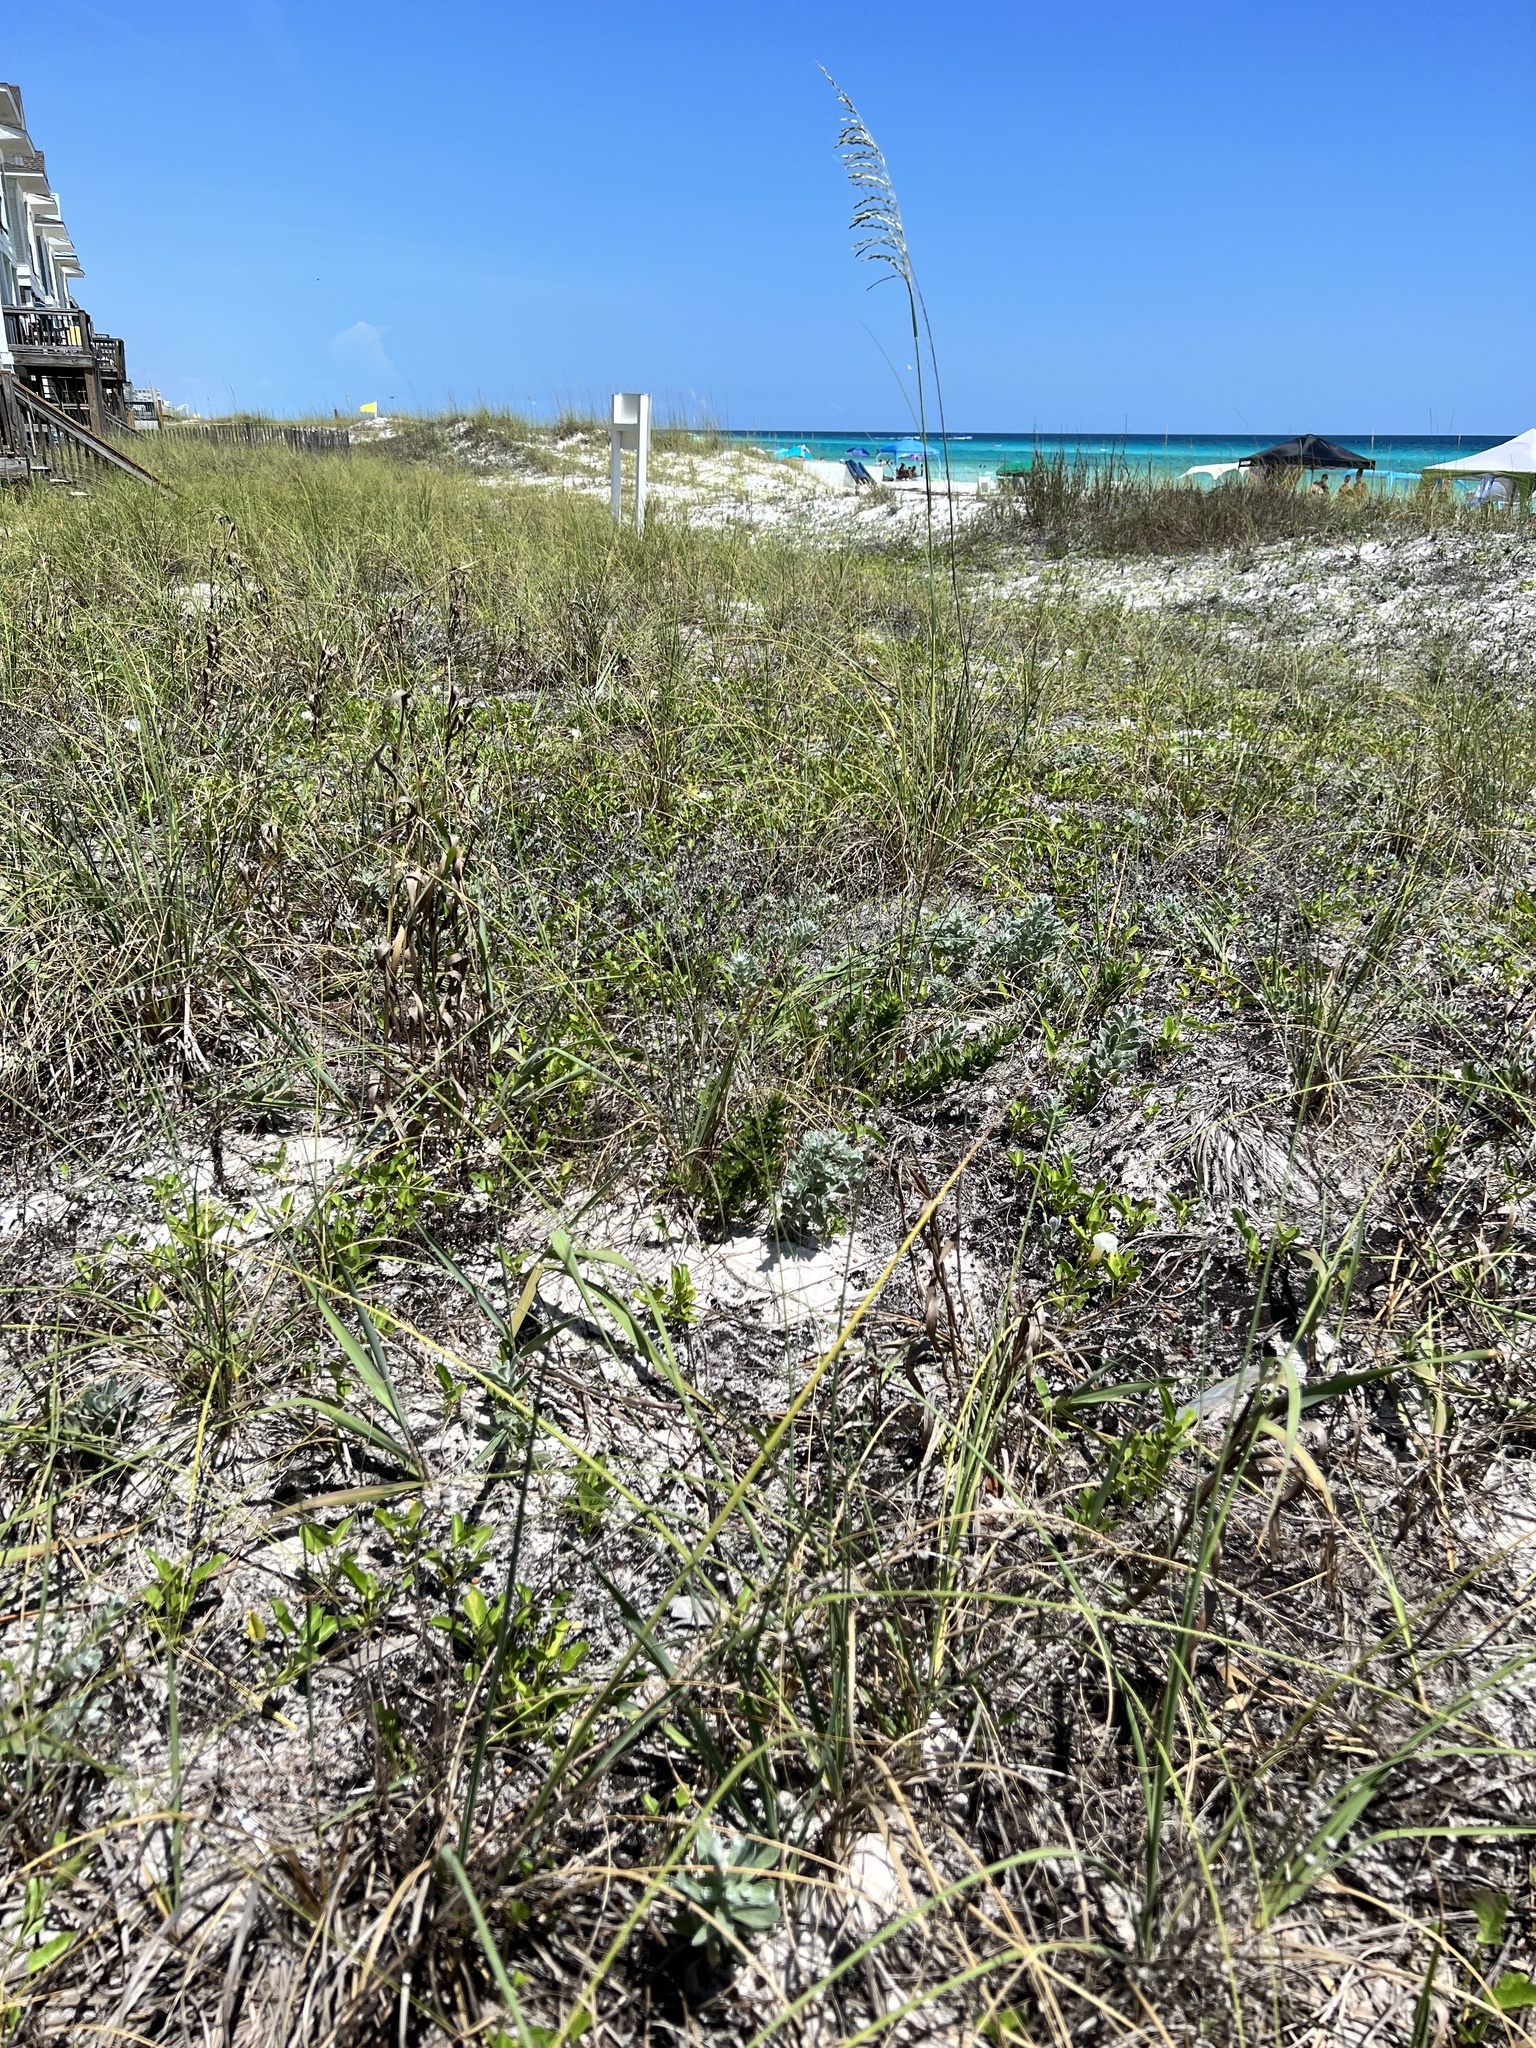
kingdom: Plantae
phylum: Tracheophyta
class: Liliopsida
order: Poales
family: Poaceae
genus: Uniola
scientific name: Uniola paniculata
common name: Seaside-oats
